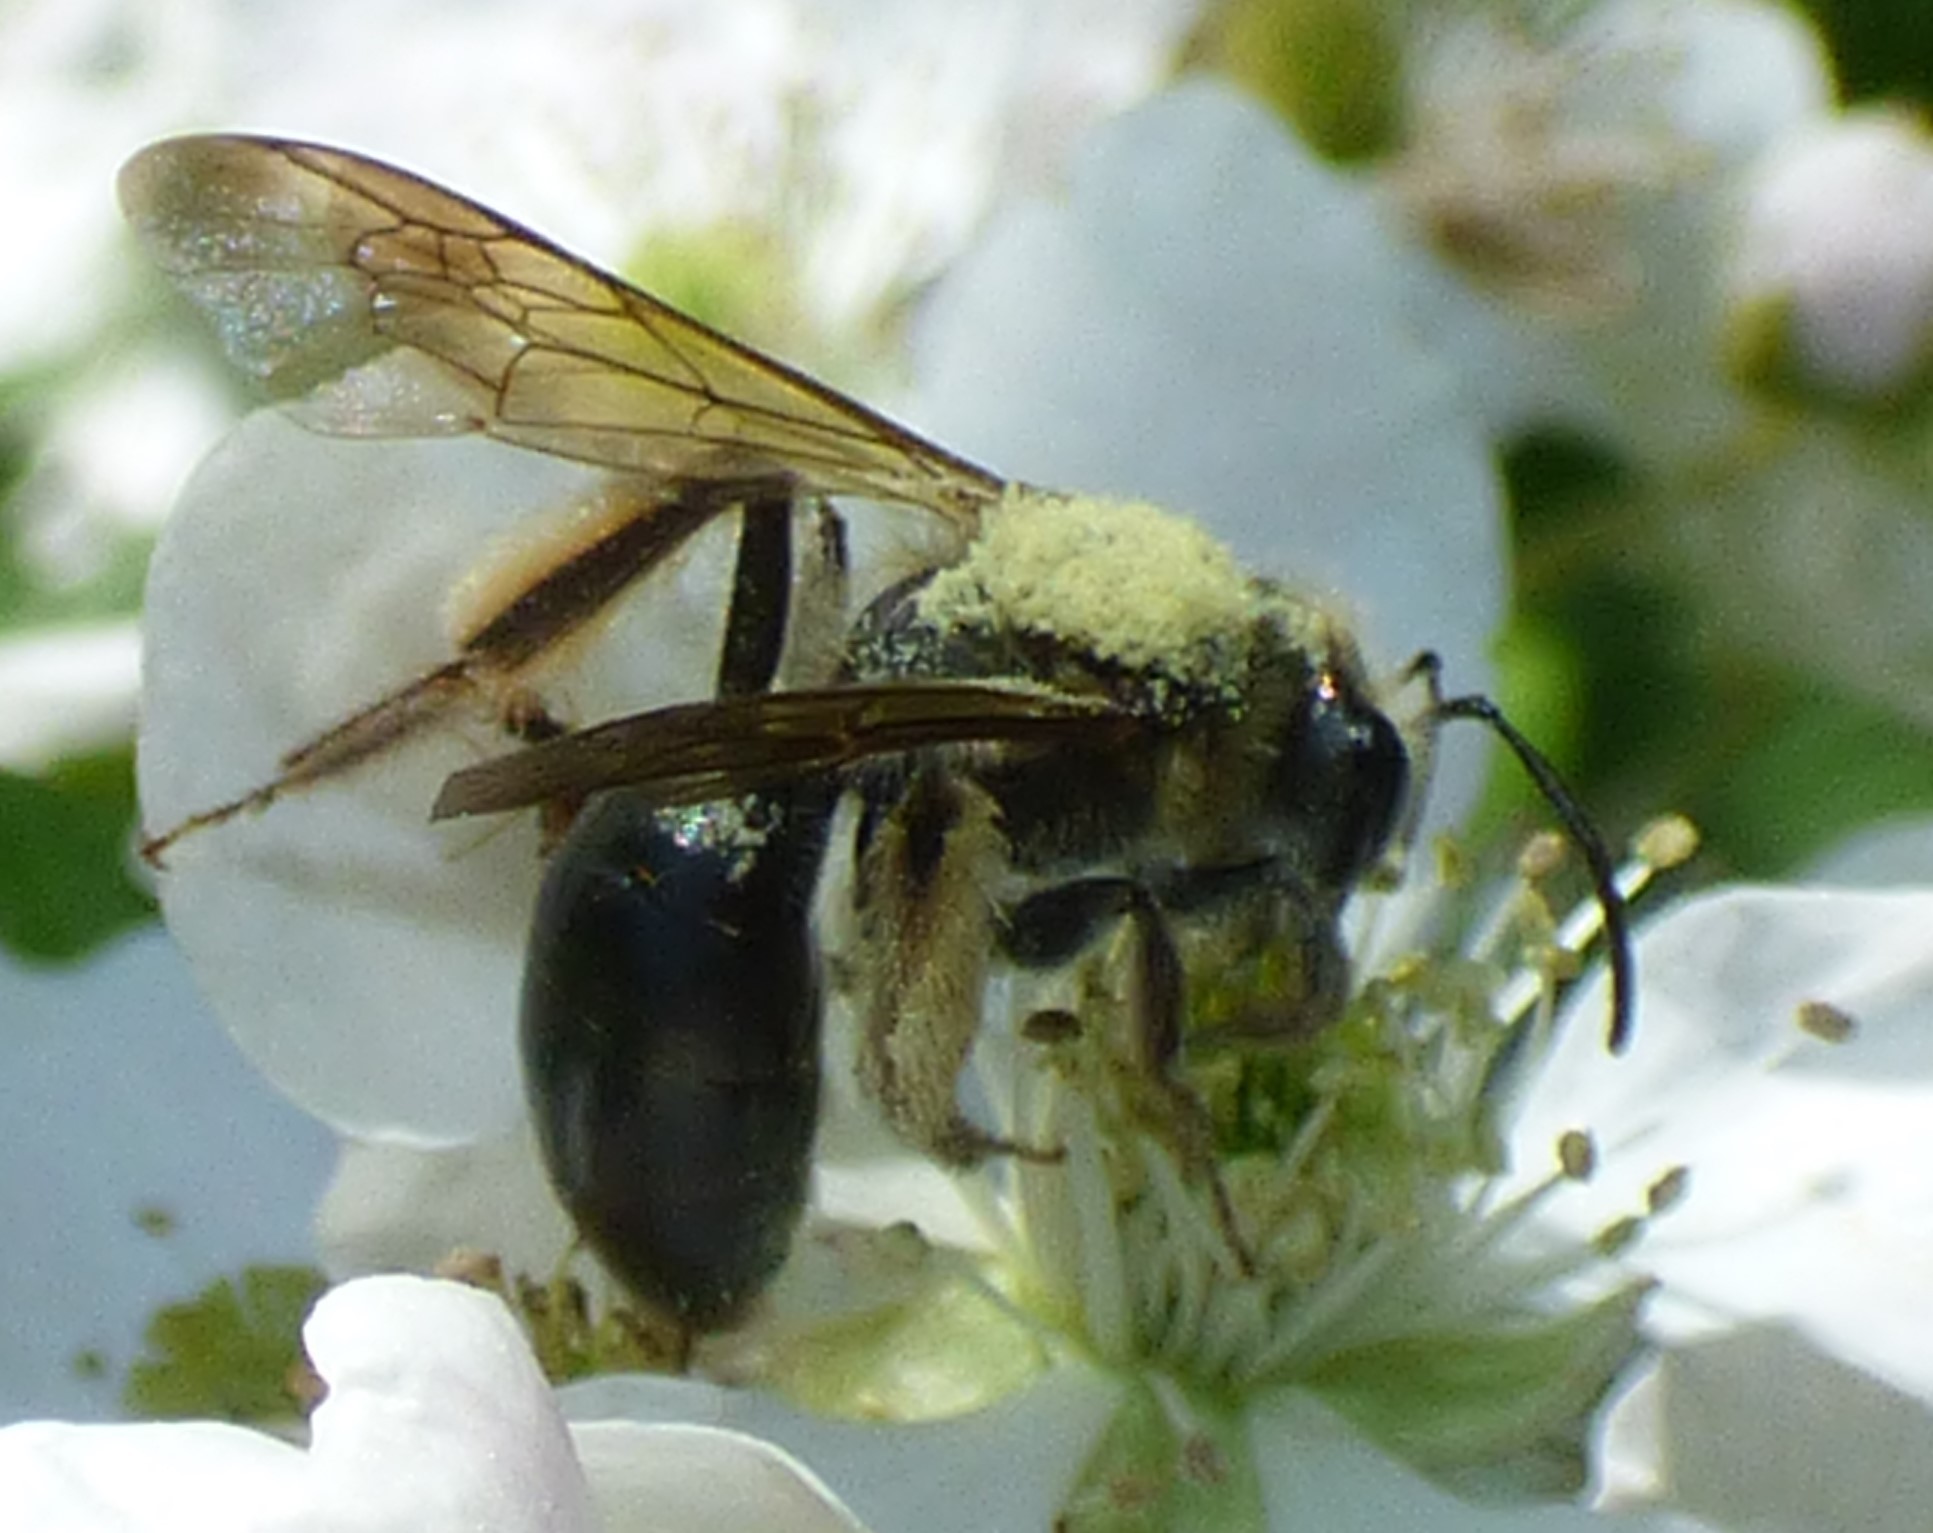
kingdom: Animalia
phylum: Arthropoda
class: Insecta
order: Hymenoptera
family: Andrenidae
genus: Andrena
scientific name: Andrena crataegi
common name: Hawthorn mining bee
